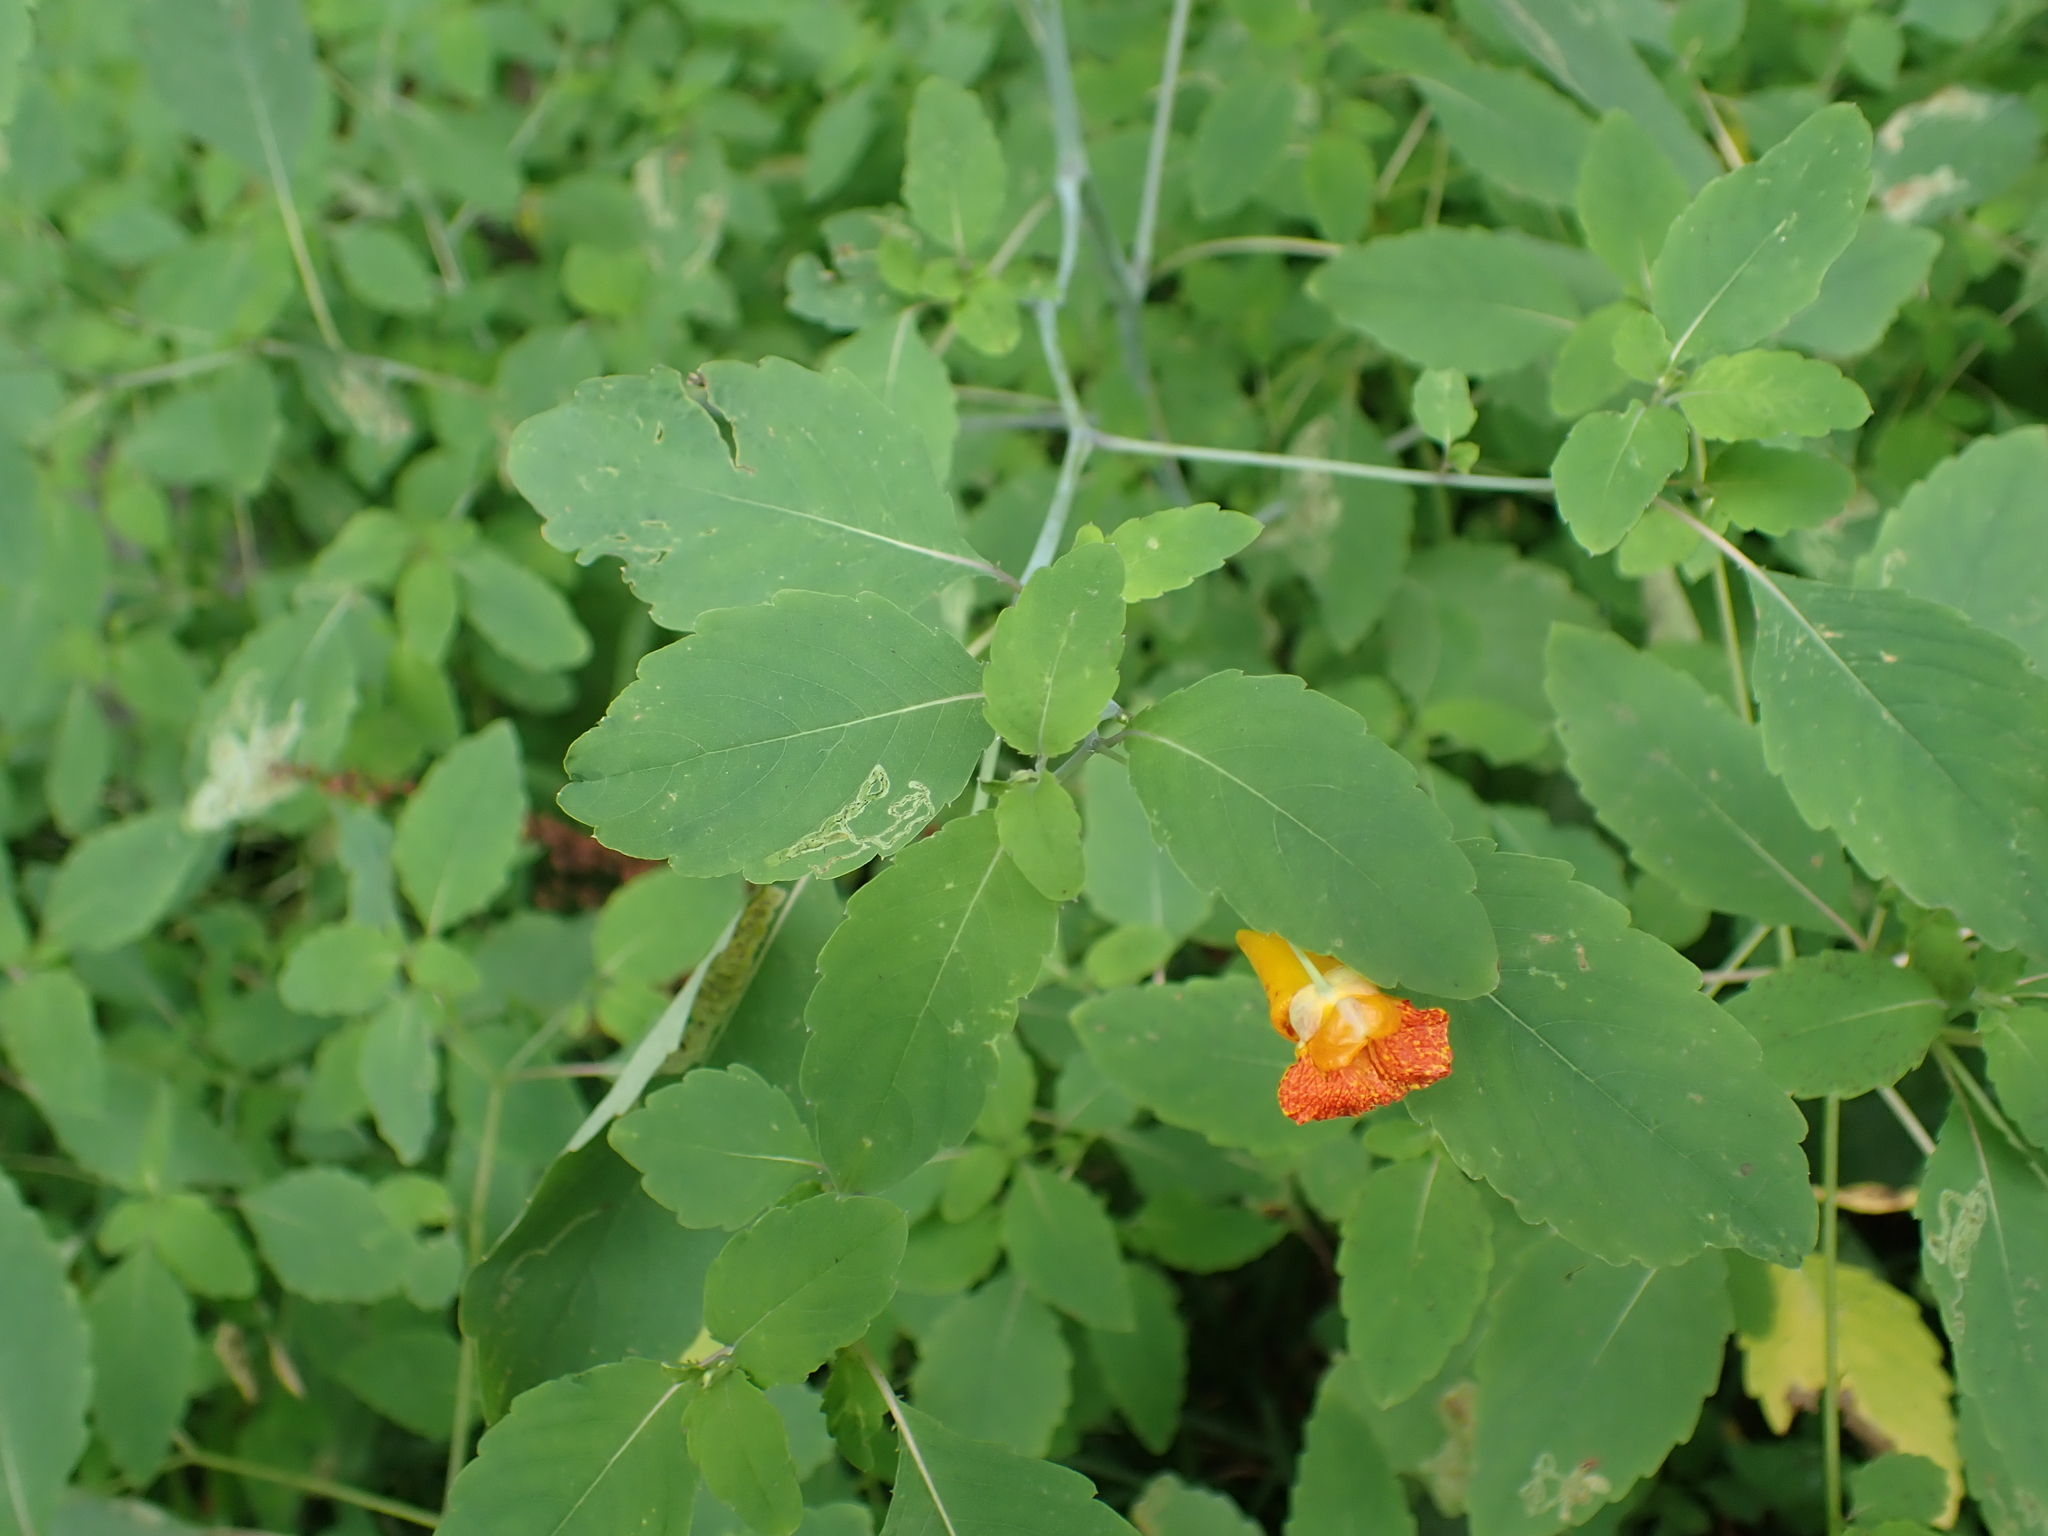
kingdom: Plantae
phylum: Tracheophyta
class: Magnoliopsida
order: Ericales
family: Balsaminaceae
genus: Impatiens
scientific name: Impatiens capensis
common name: Orange balsam
